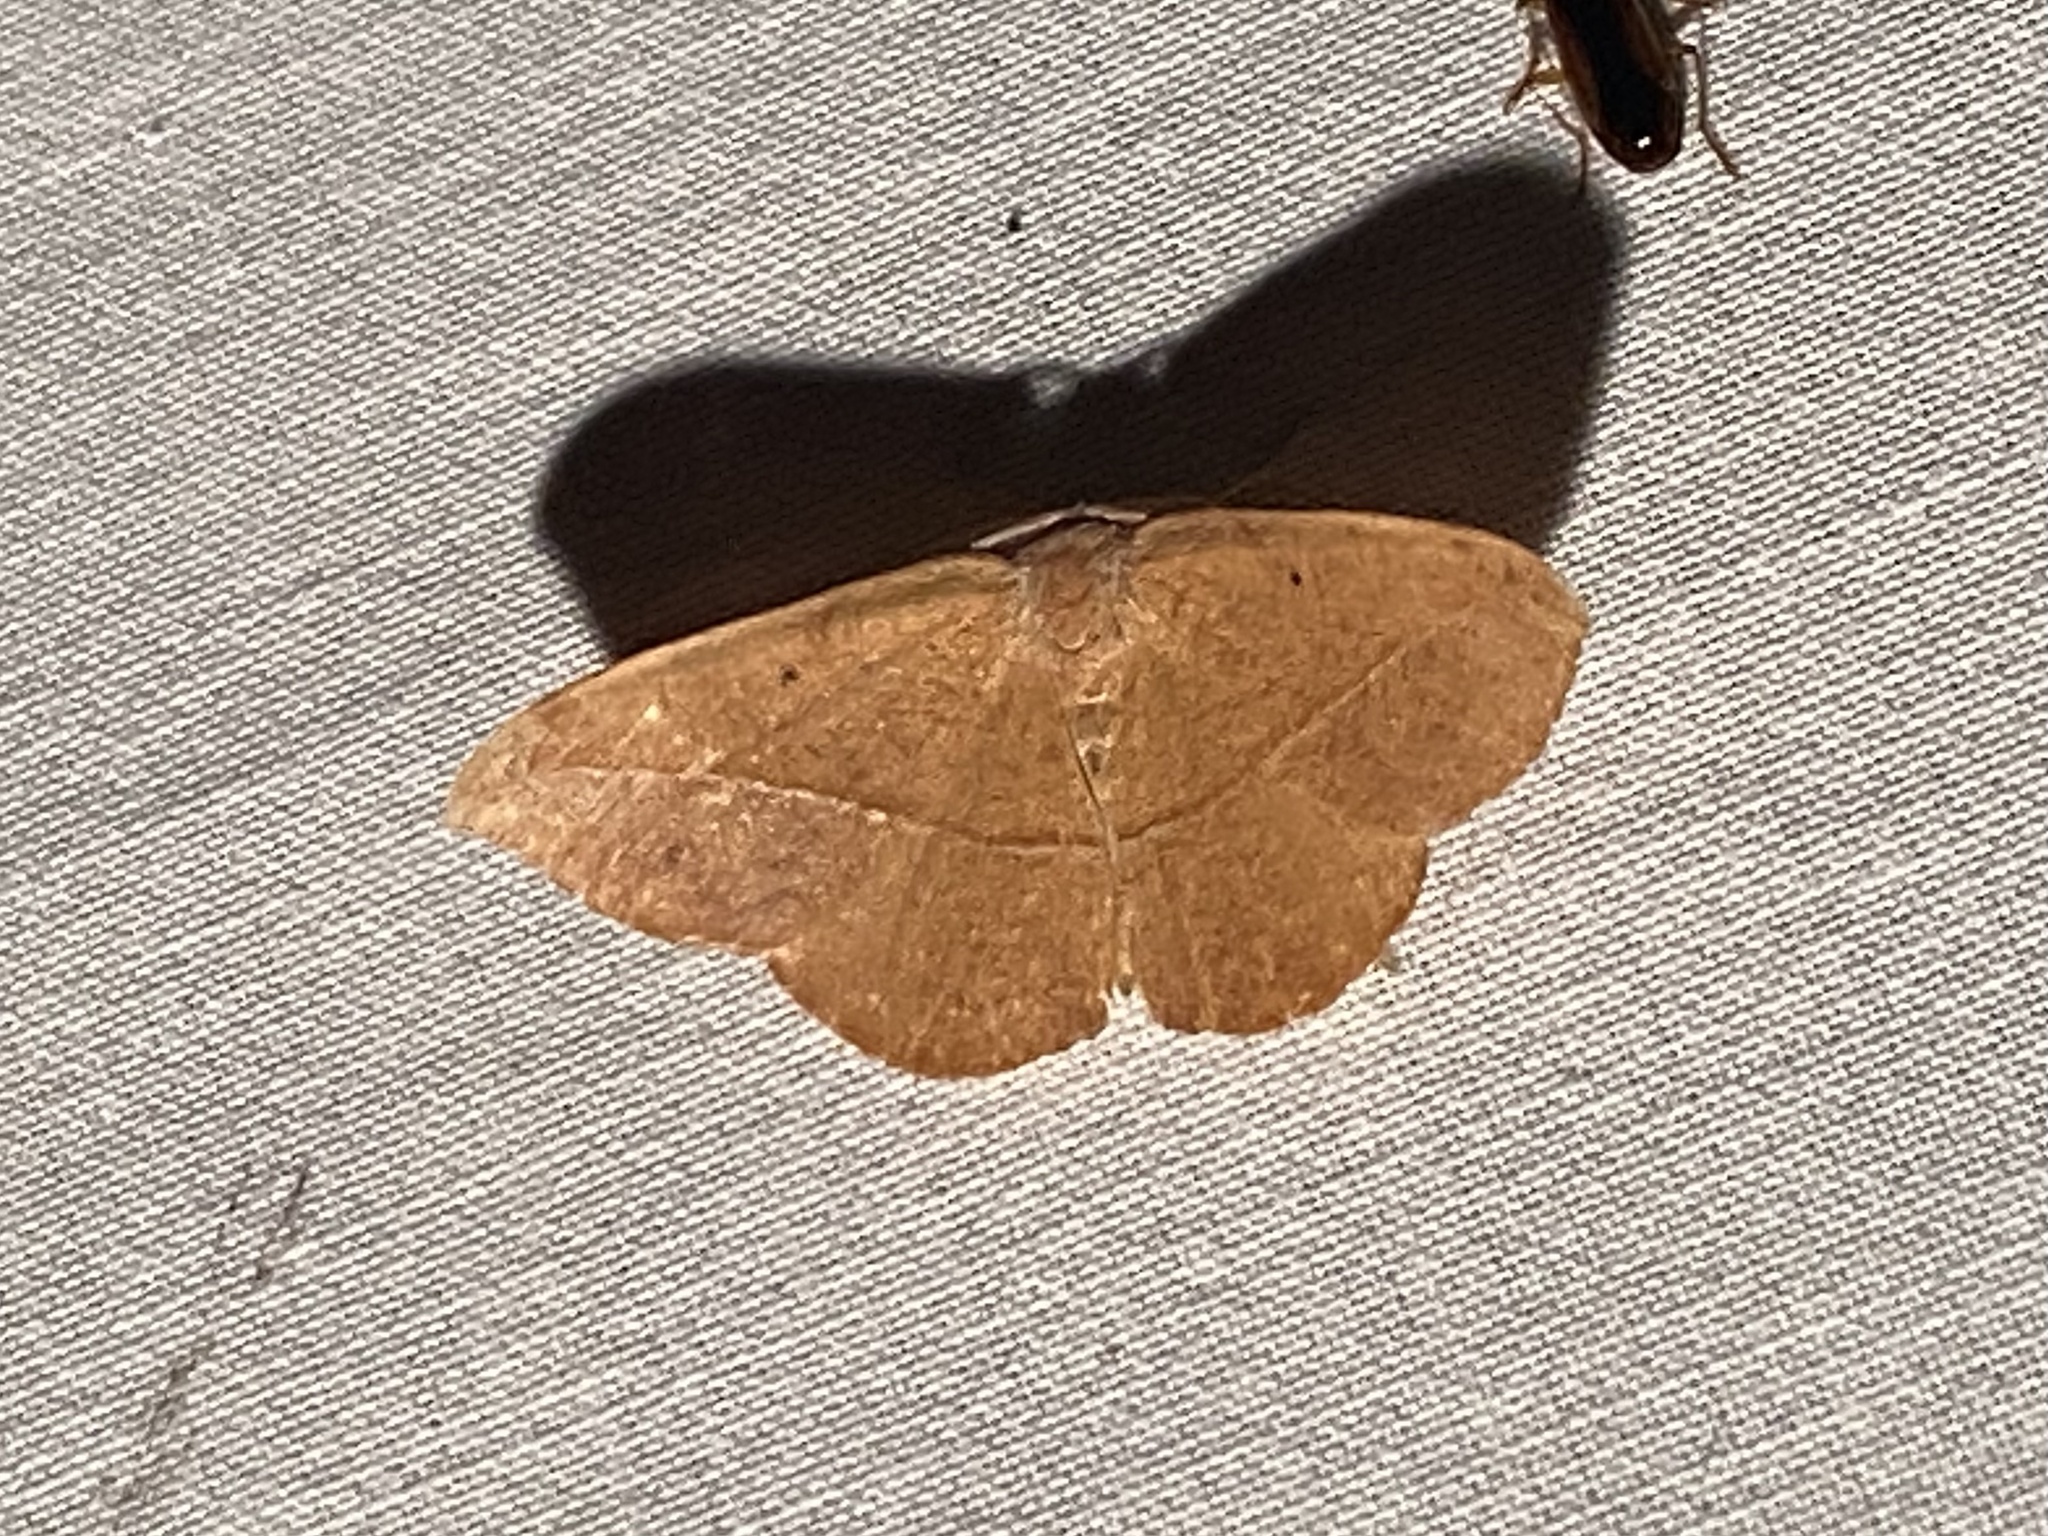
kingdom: Animalia
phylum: Arthropoda
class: Insecta
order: Lepidoptera
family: Geometridae
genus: Patalene
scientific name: Patalene olyzonaria
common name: Juniper geometer moth
